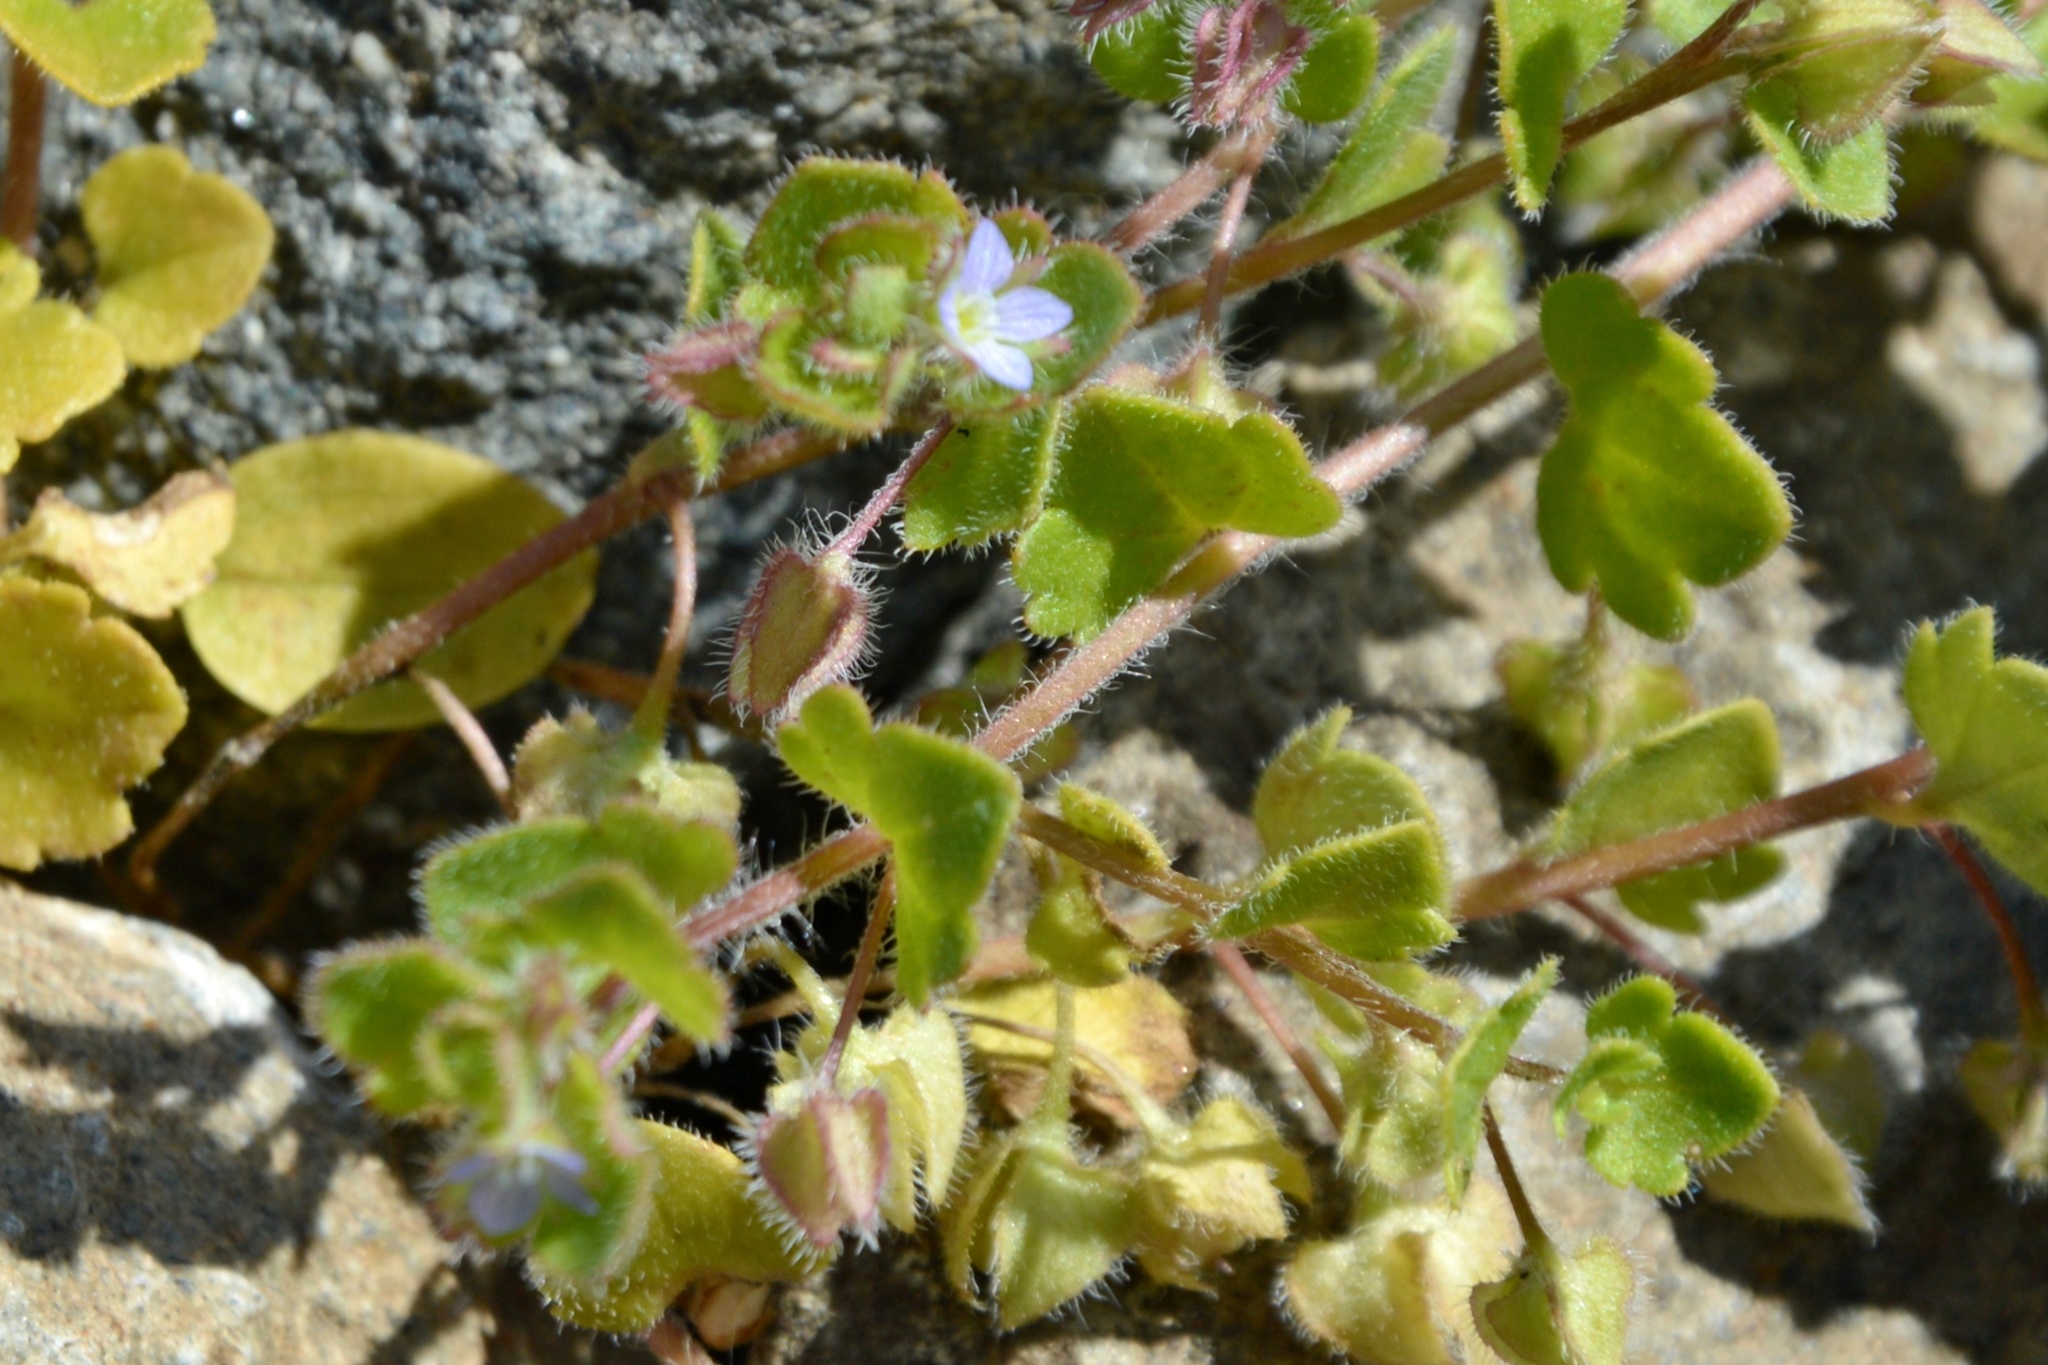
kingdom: Plantae
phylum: Tracheophyta
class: Magnoliopsida
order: Lamiales
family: Plantaginaceae
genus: Veronica
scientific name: Veronica sublobata
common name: False ivy-leaved speedwell
